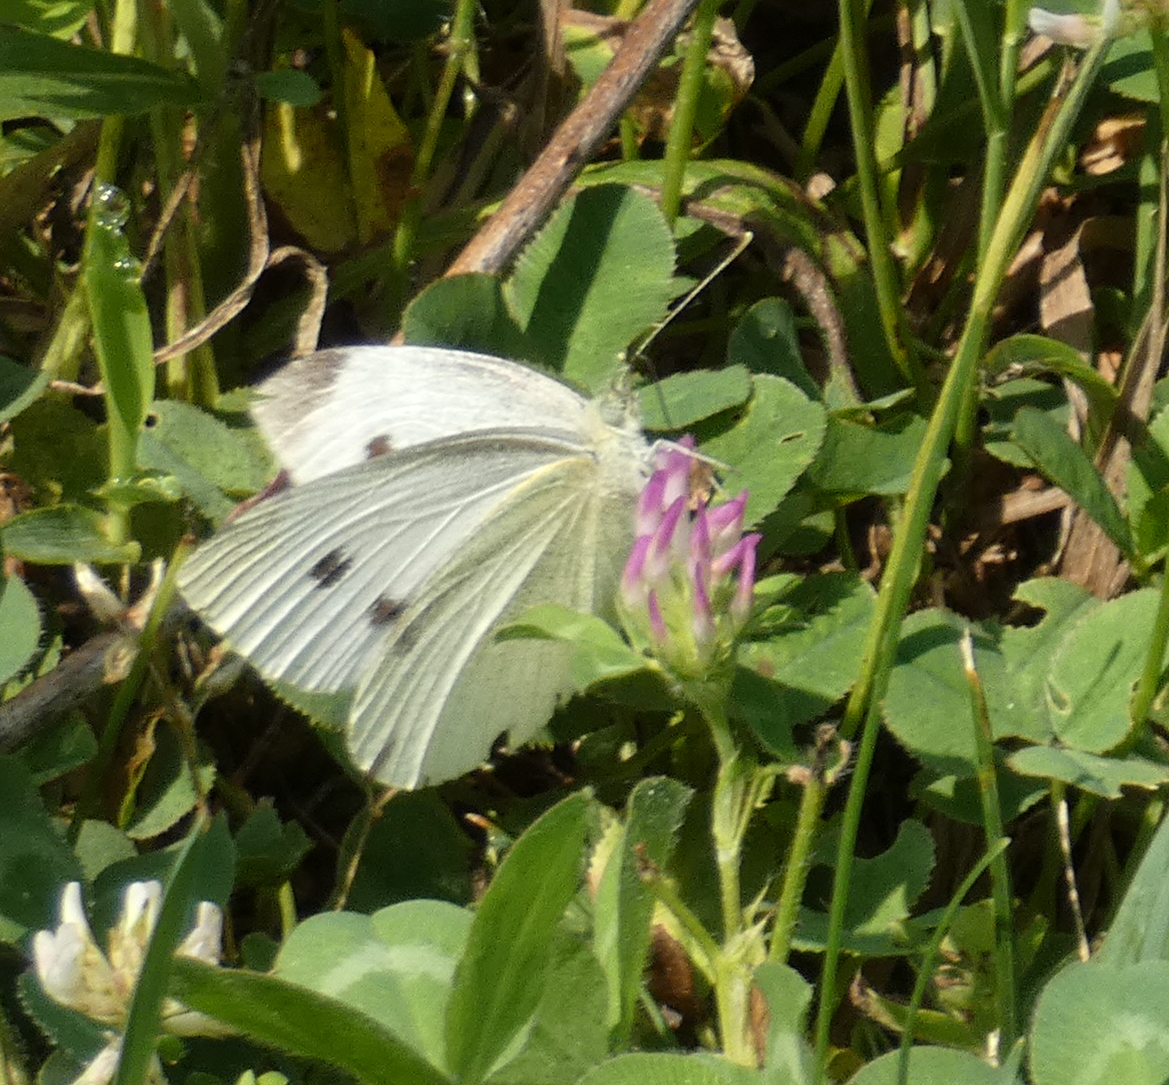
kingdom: Animalia
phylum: Arthropoda
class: Insecta
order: Lepidoptera
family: Pieridae
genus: Pieris
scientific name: Pieris rapae
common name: Small white
